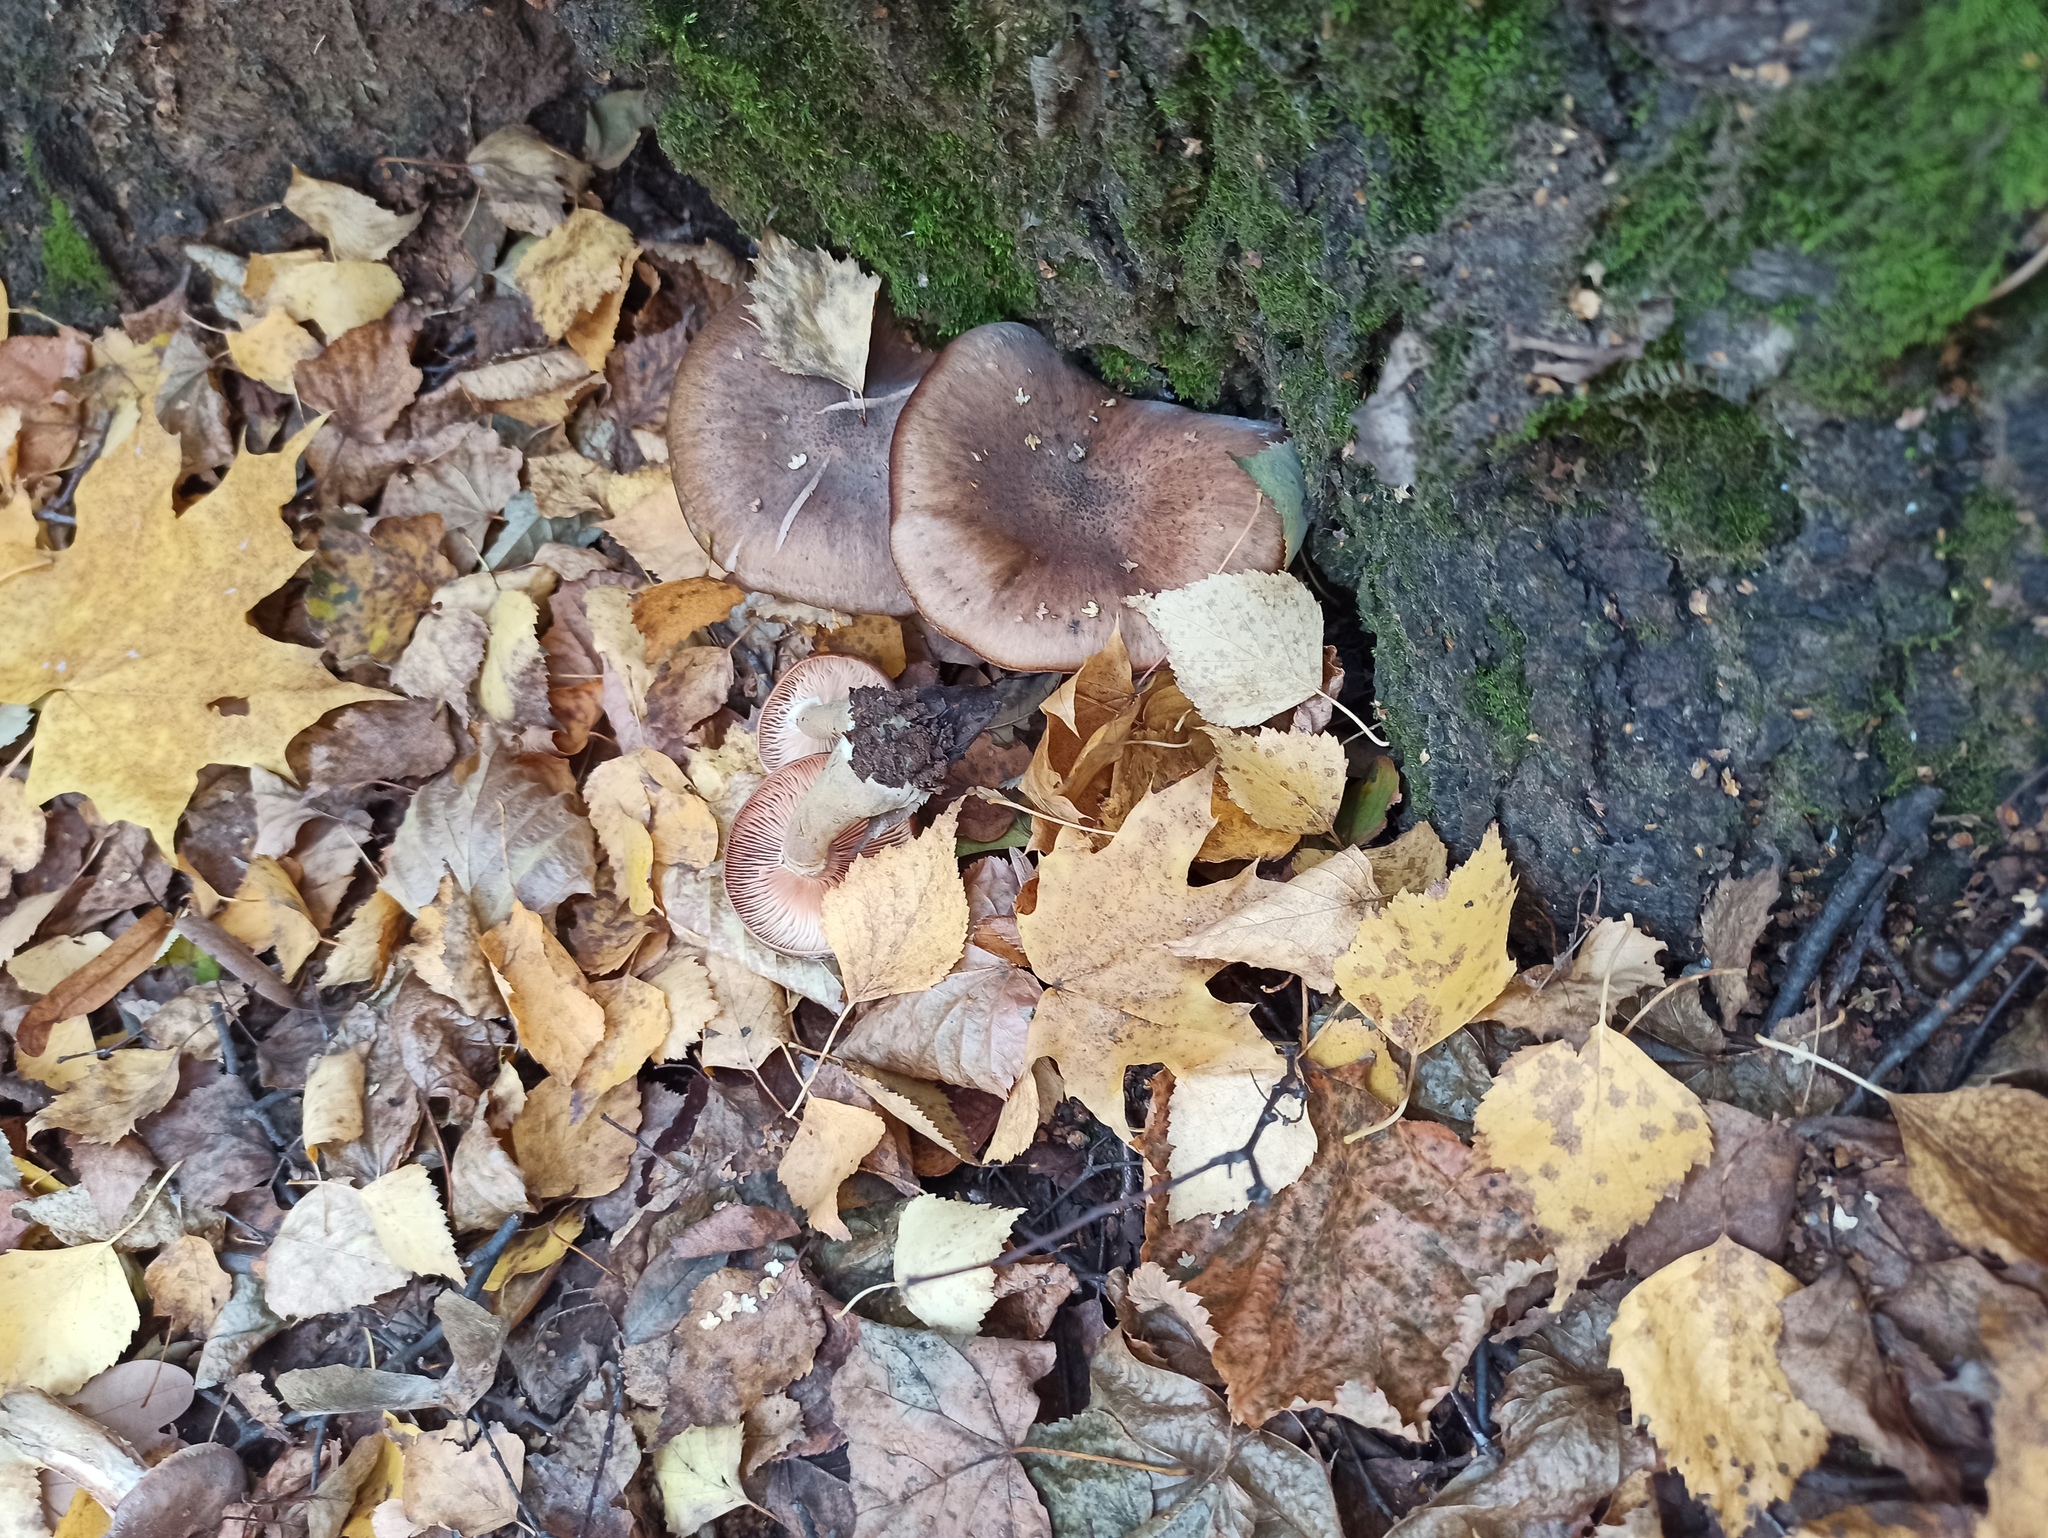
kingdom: Fungi
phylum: Basidiomycota
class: Agaricomycetes
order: Agaricales
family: Physalacriaceae
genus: Armillaria
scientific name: Armillaria cepistipes
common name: Mullet honey fungus
